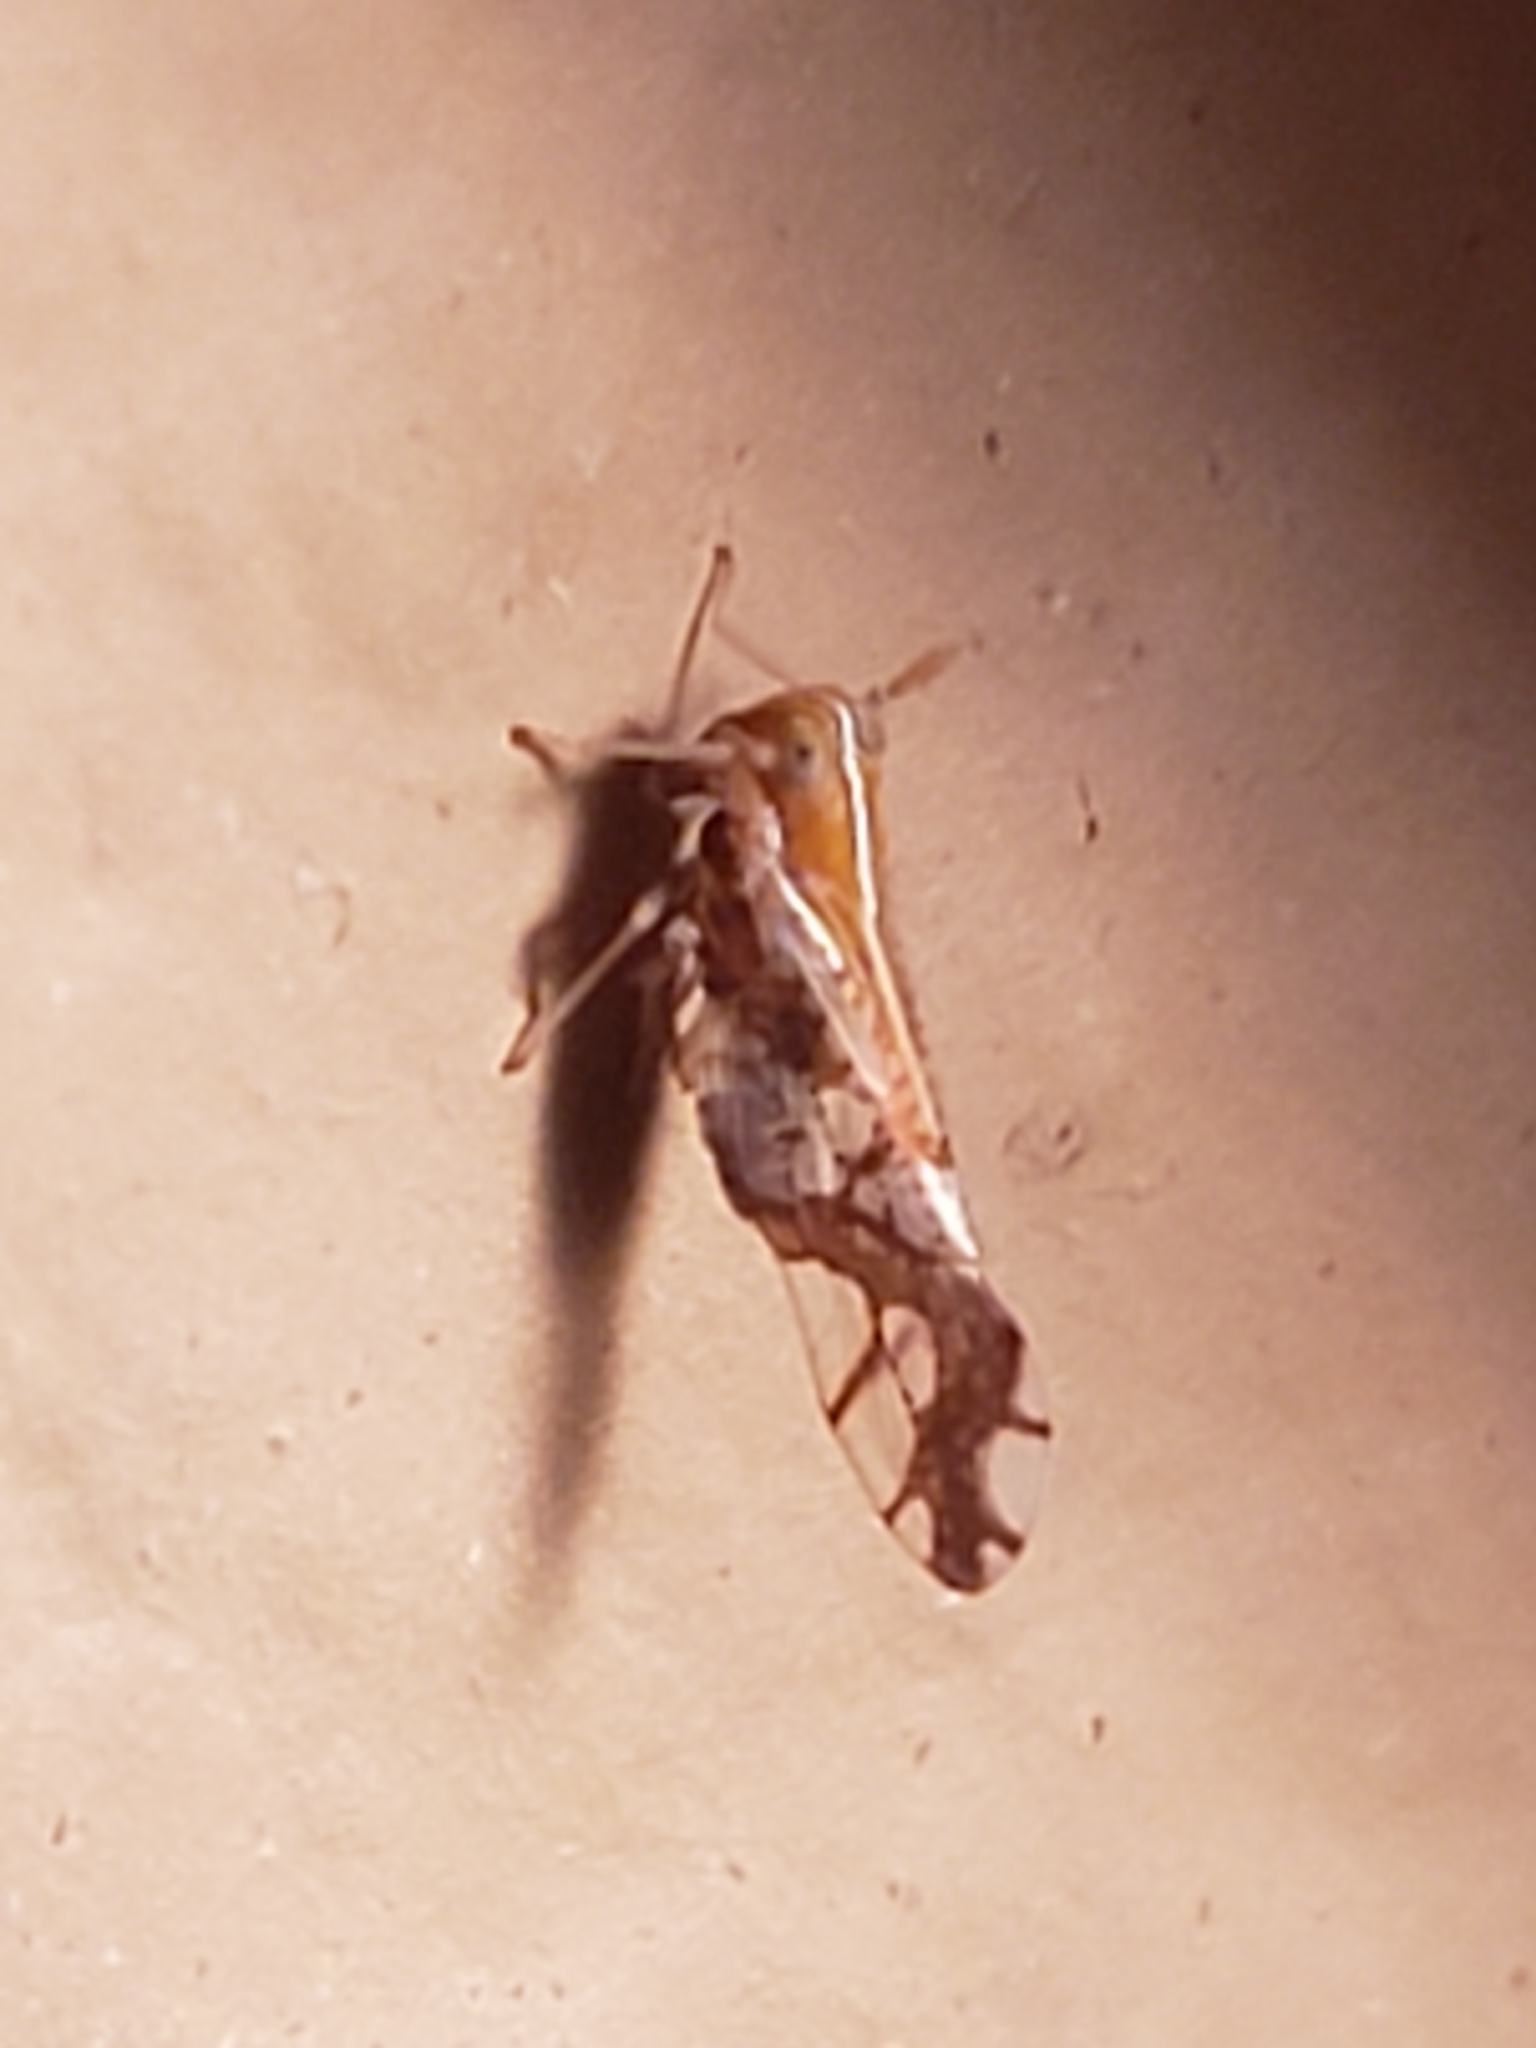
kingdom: Animalia
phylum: Arthropoda
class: Insecta
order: Hemiptera
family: Delphacidae
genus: Liburniella
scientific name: Liburniella ornata
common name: Ornate planthopper
